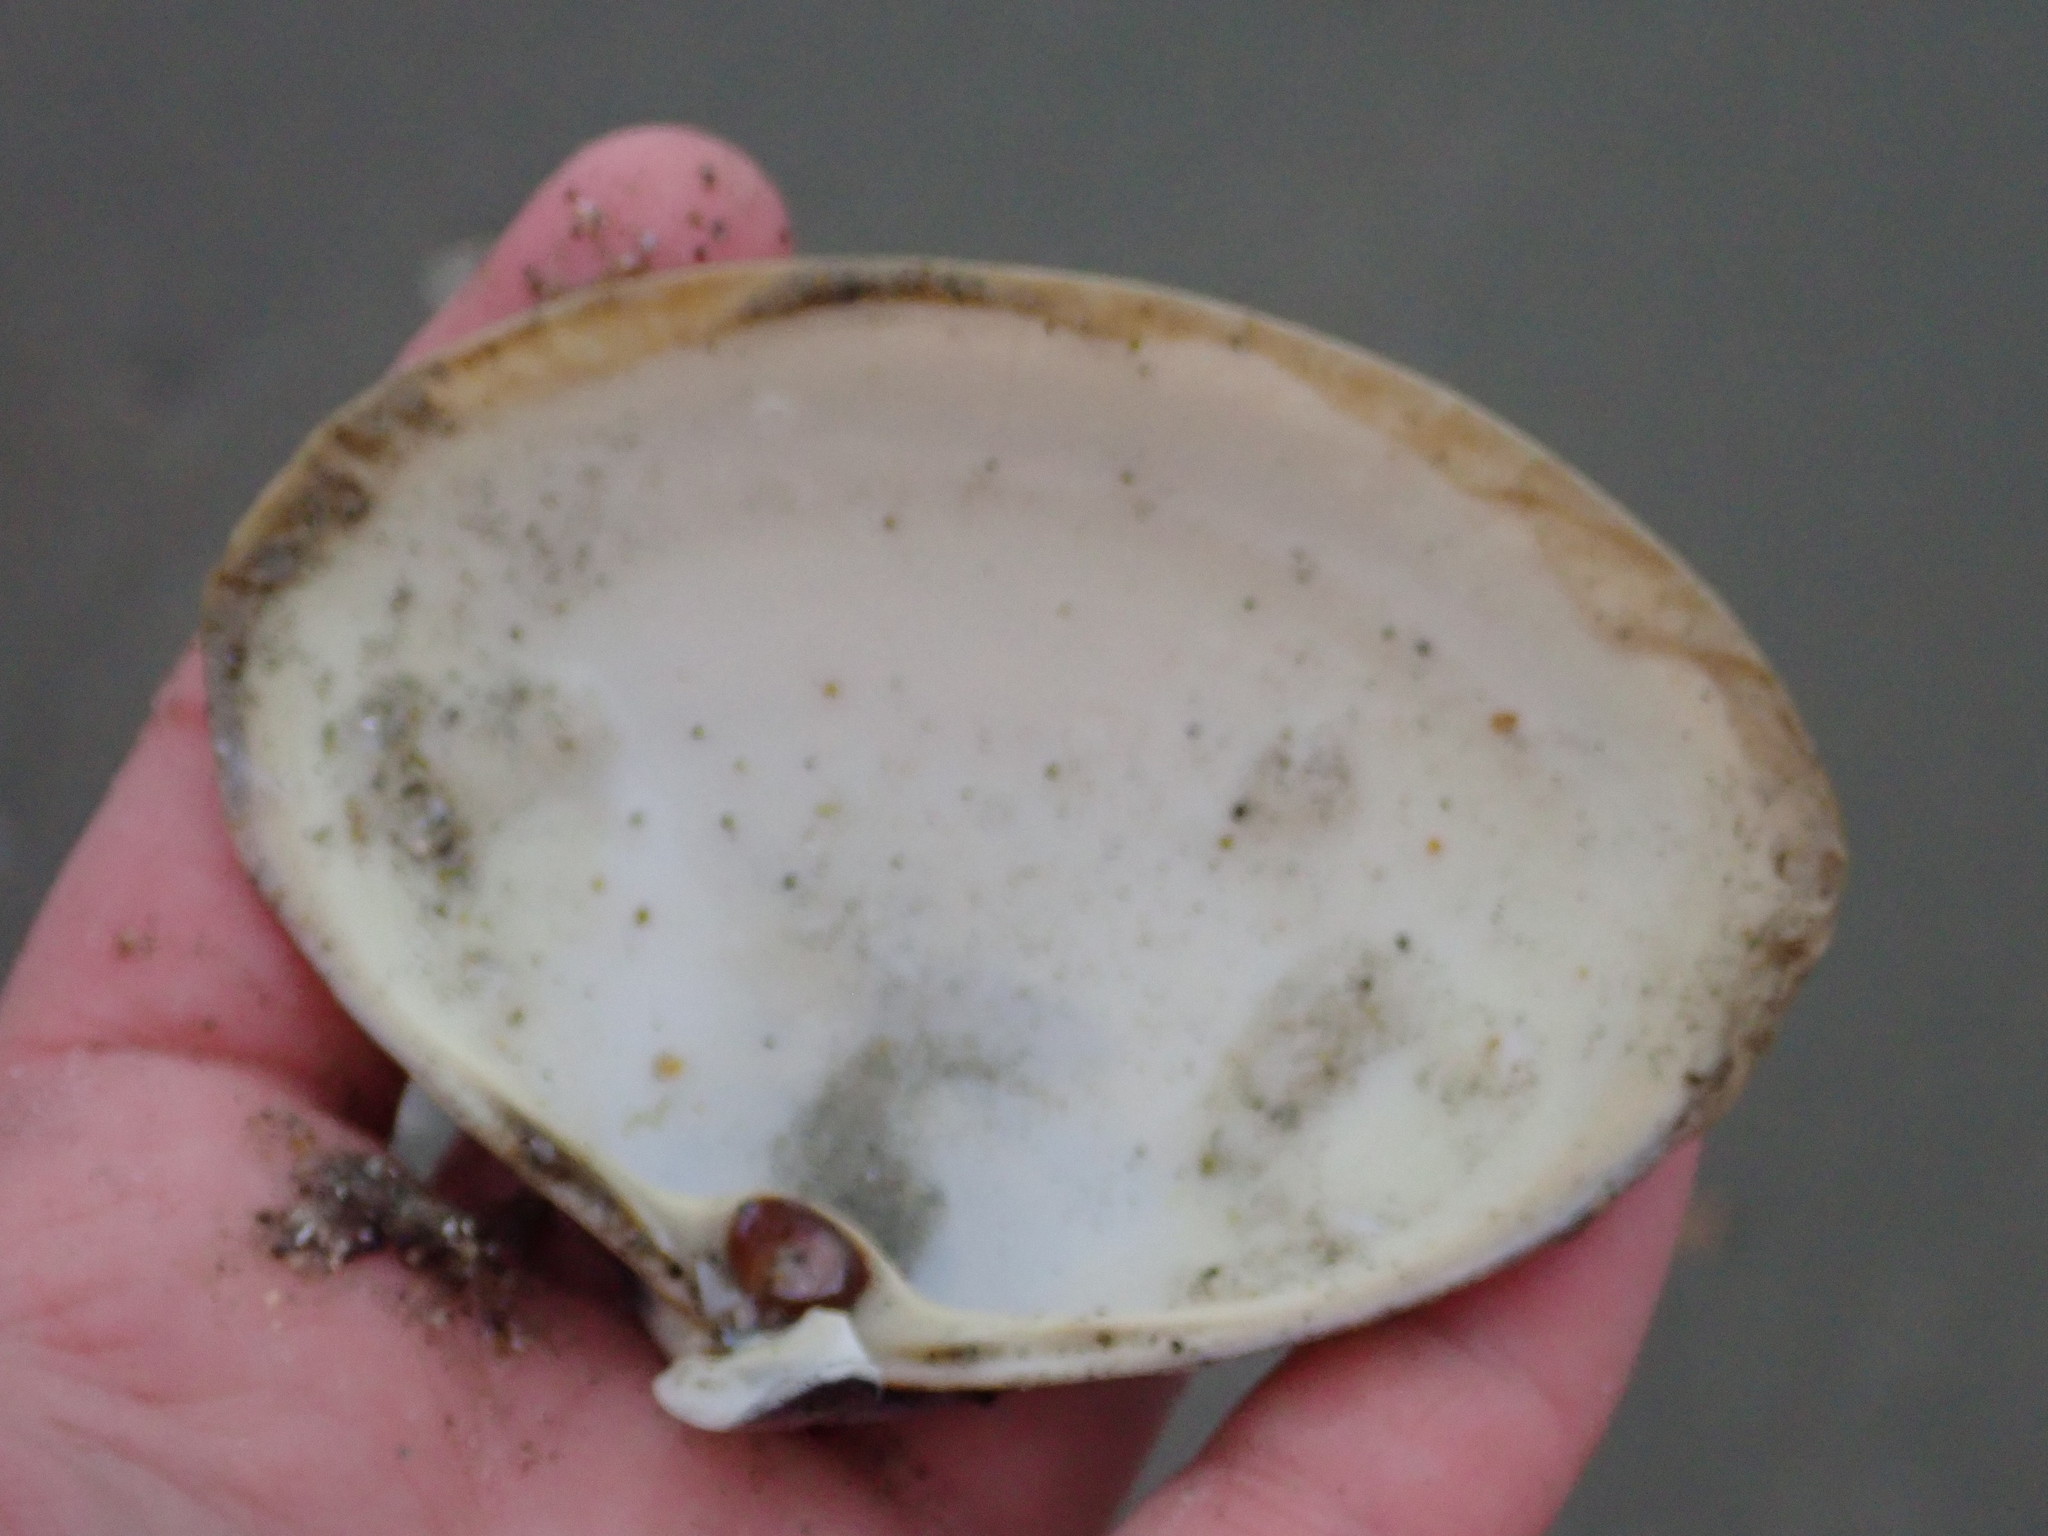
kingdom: Animalia
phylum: Mollusca
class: Bivalvia
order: Venerida
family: Mactridae
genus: Spisula
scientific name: Spisula solidissima
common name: Atlantic surf clam
